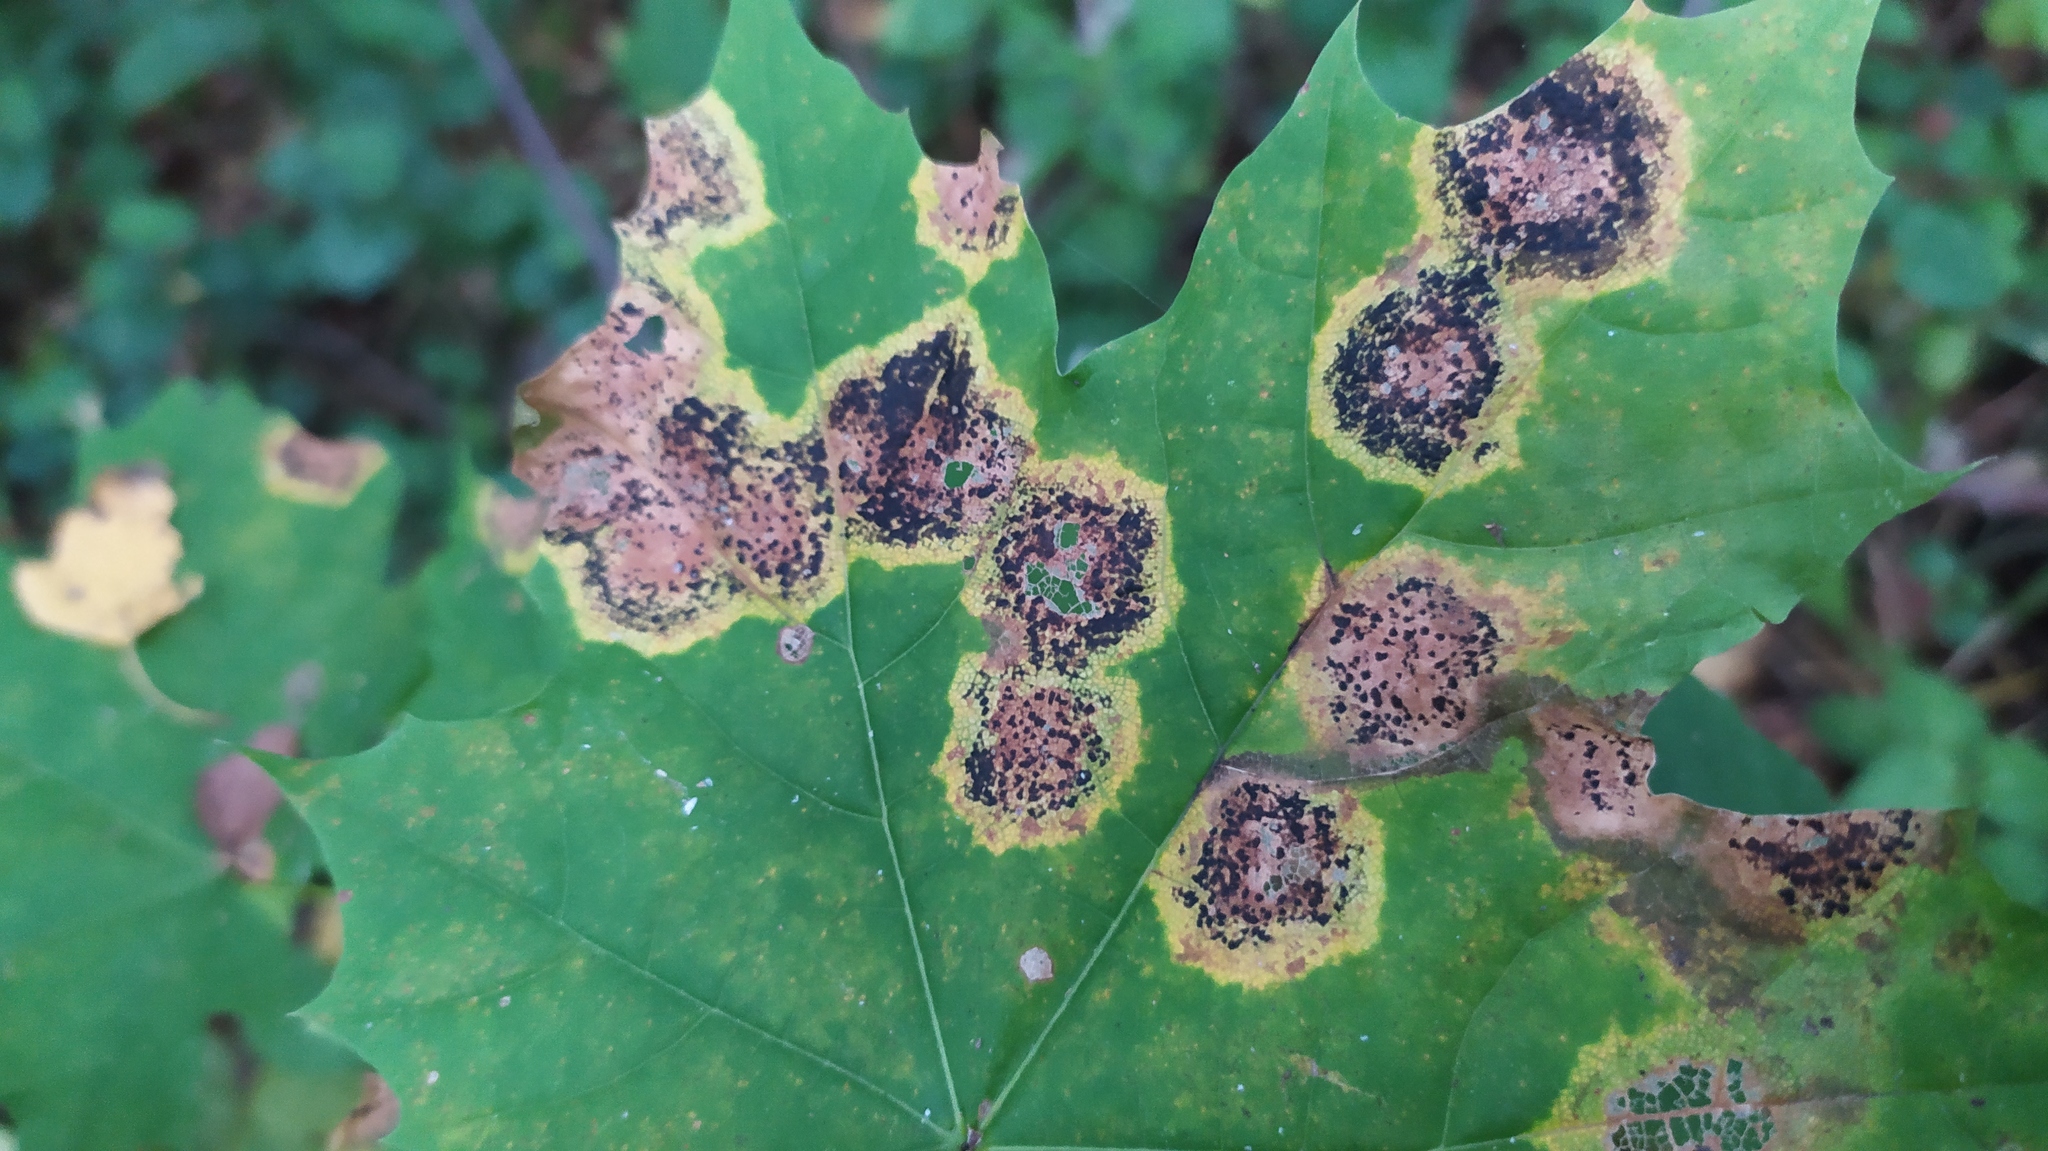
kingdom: Fungi
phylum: Ascomycota
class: Leotiomycetes
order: Rhytismatales
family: Rhytismataceae
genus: Rhytisma
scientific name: Rhytisma acerinum
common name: European tar spot
